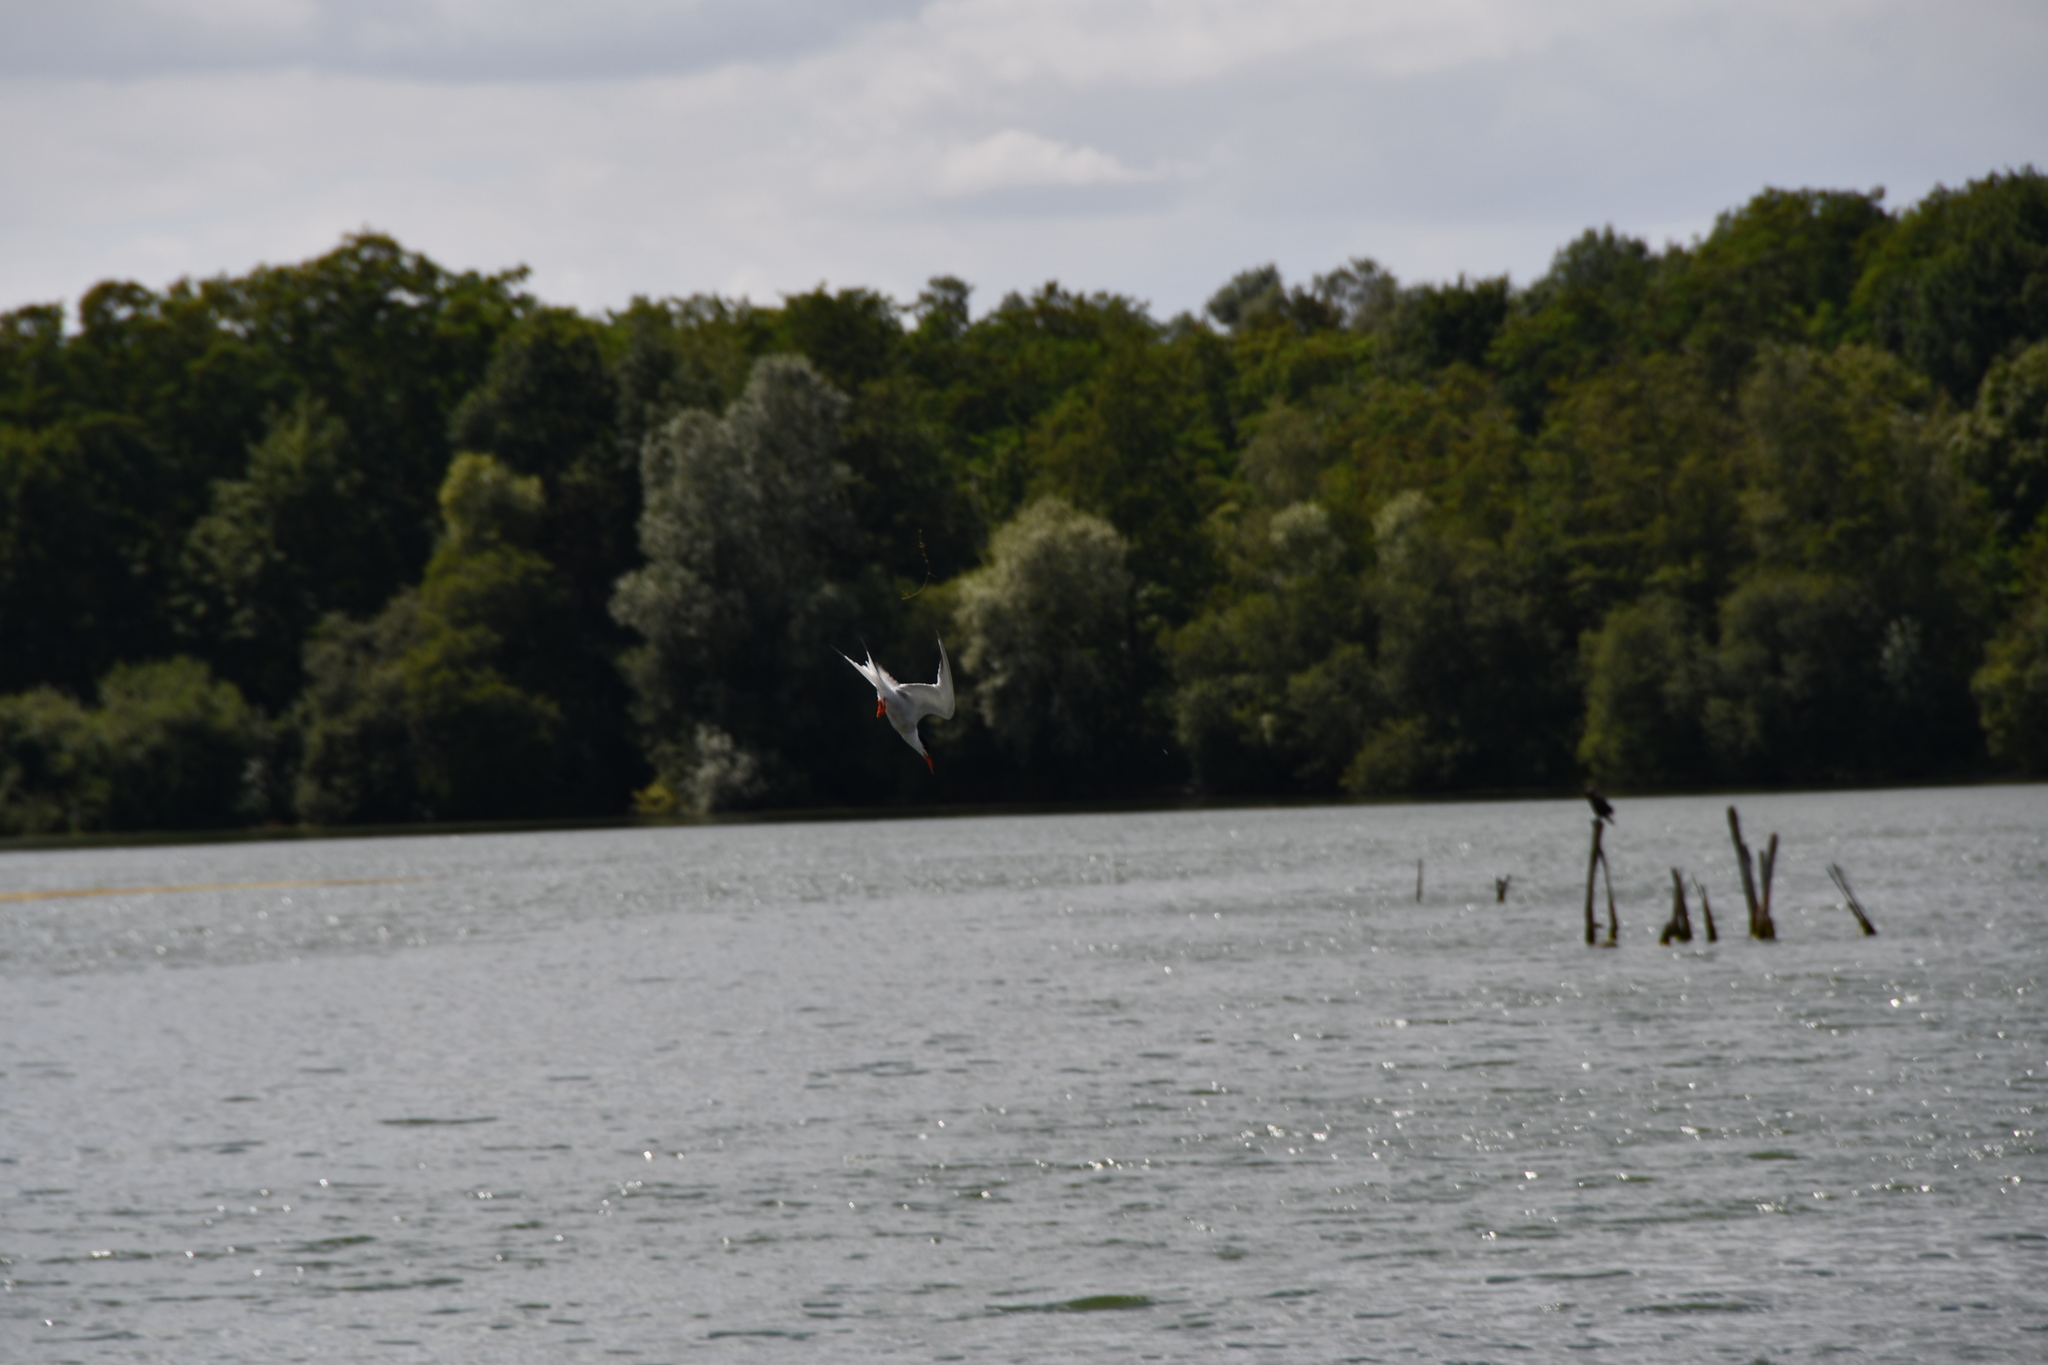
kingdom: Animalia
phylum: Chordata
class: Aves
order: Charadriiformes
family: Laridae
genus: Sterna
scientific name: Sterna hirundo
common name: Common tern
